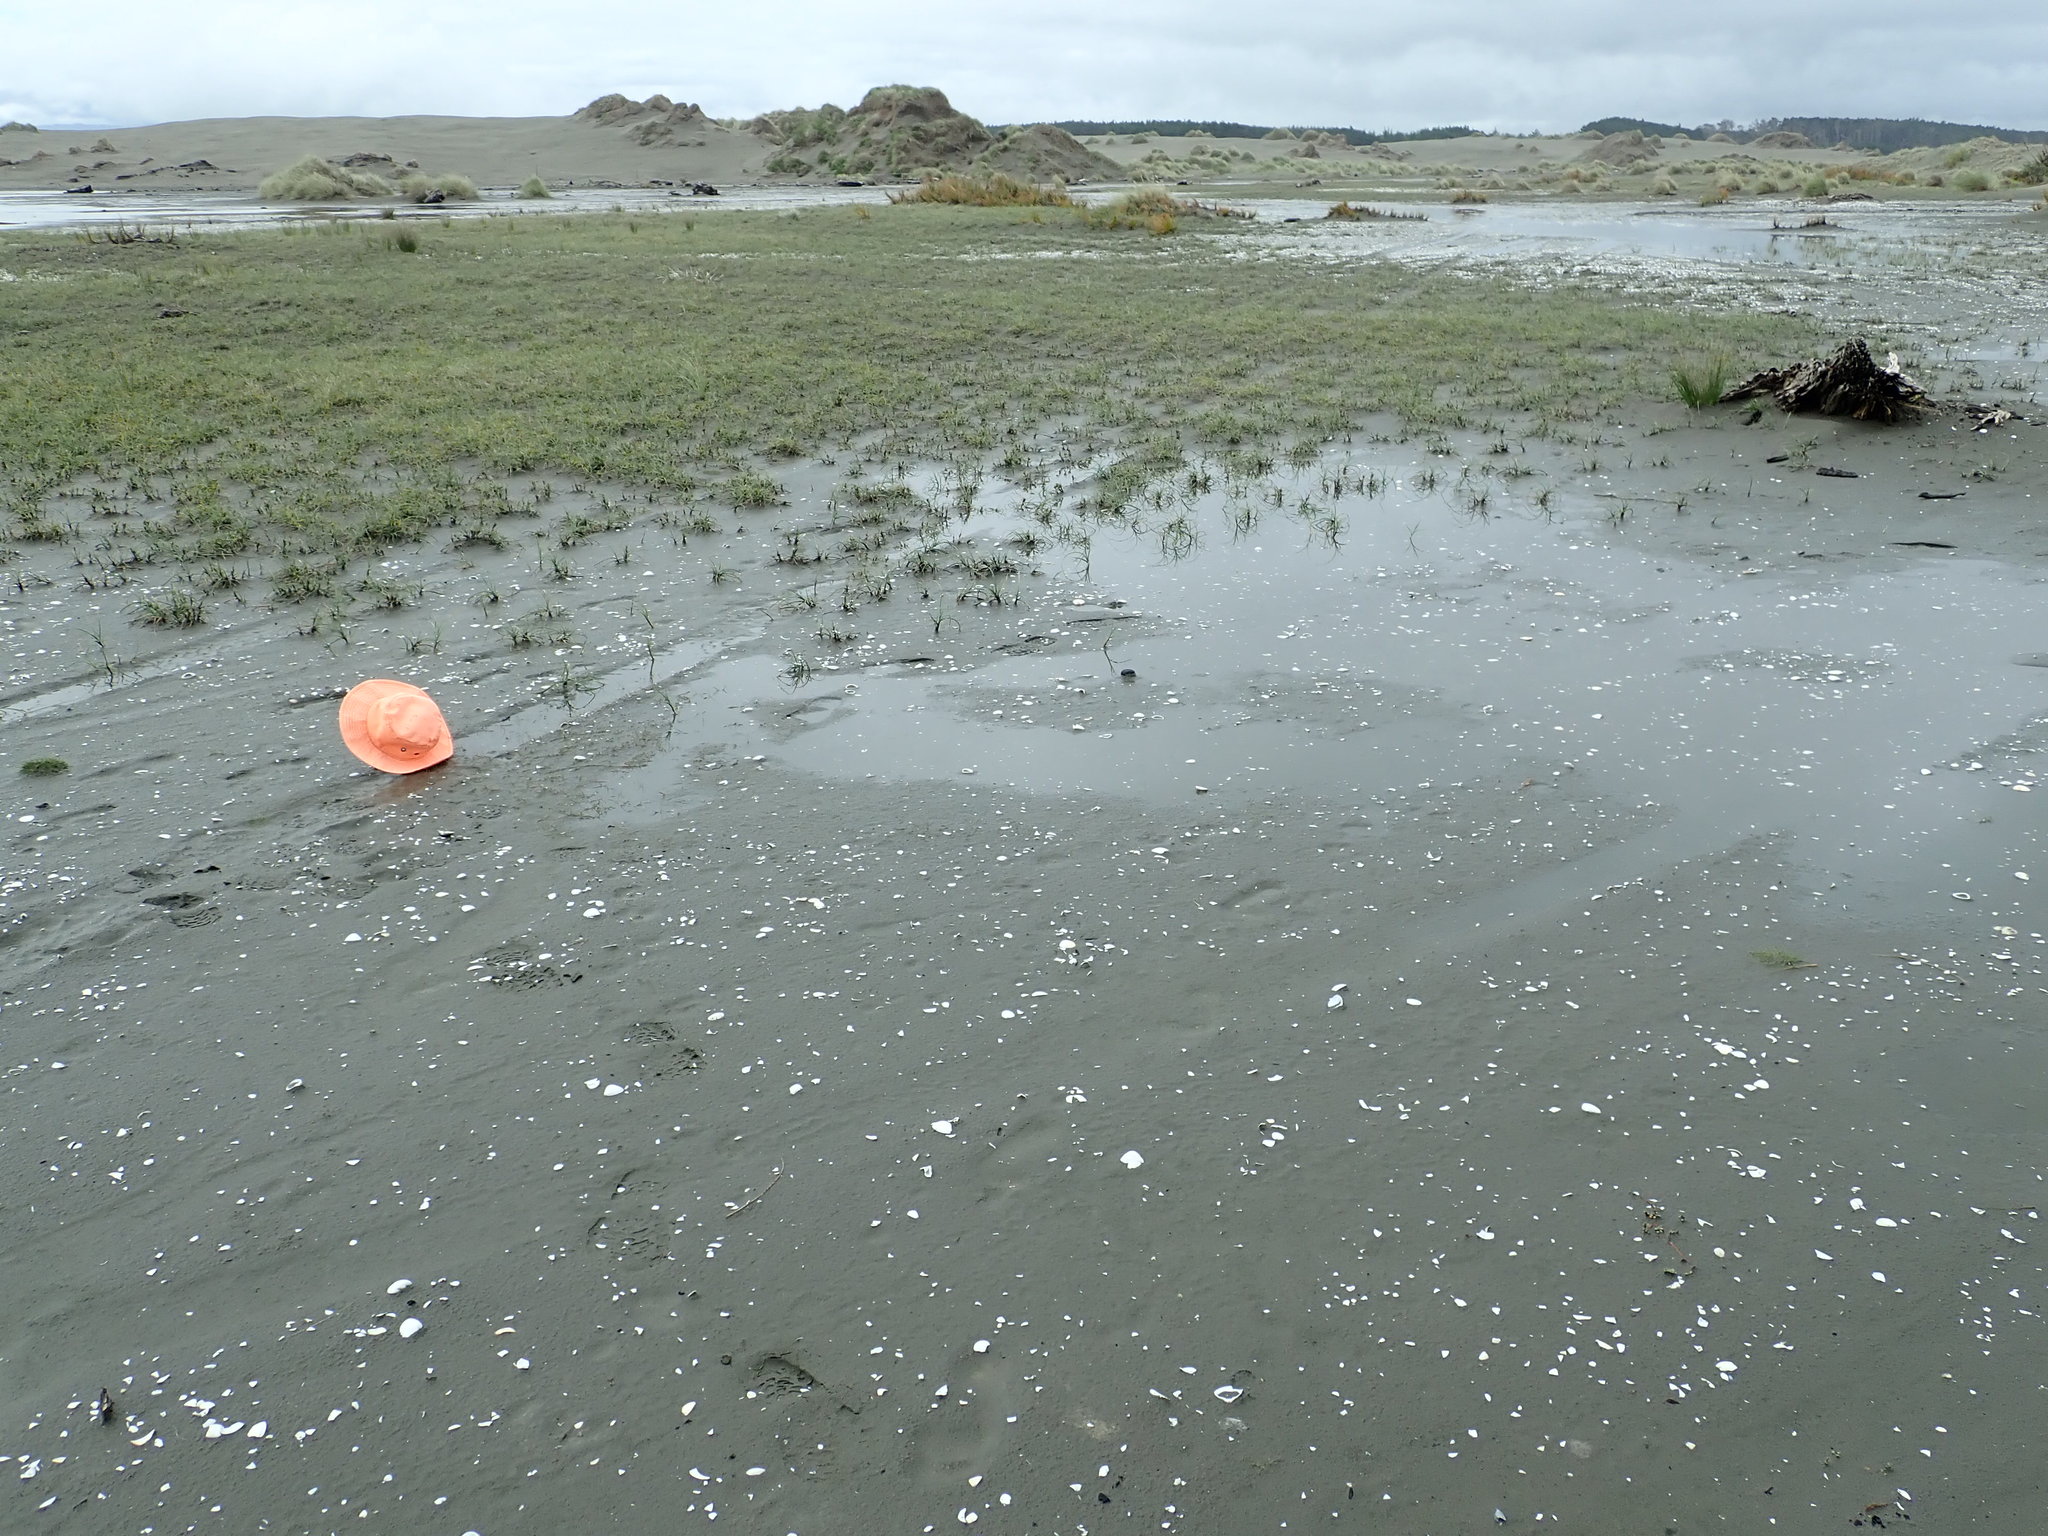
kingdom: Plantae
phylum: Tracheophyta
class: Liliopsida
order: Alismatales
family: Juncaginaceae
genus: Triglochin
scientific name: Triglochin striata
